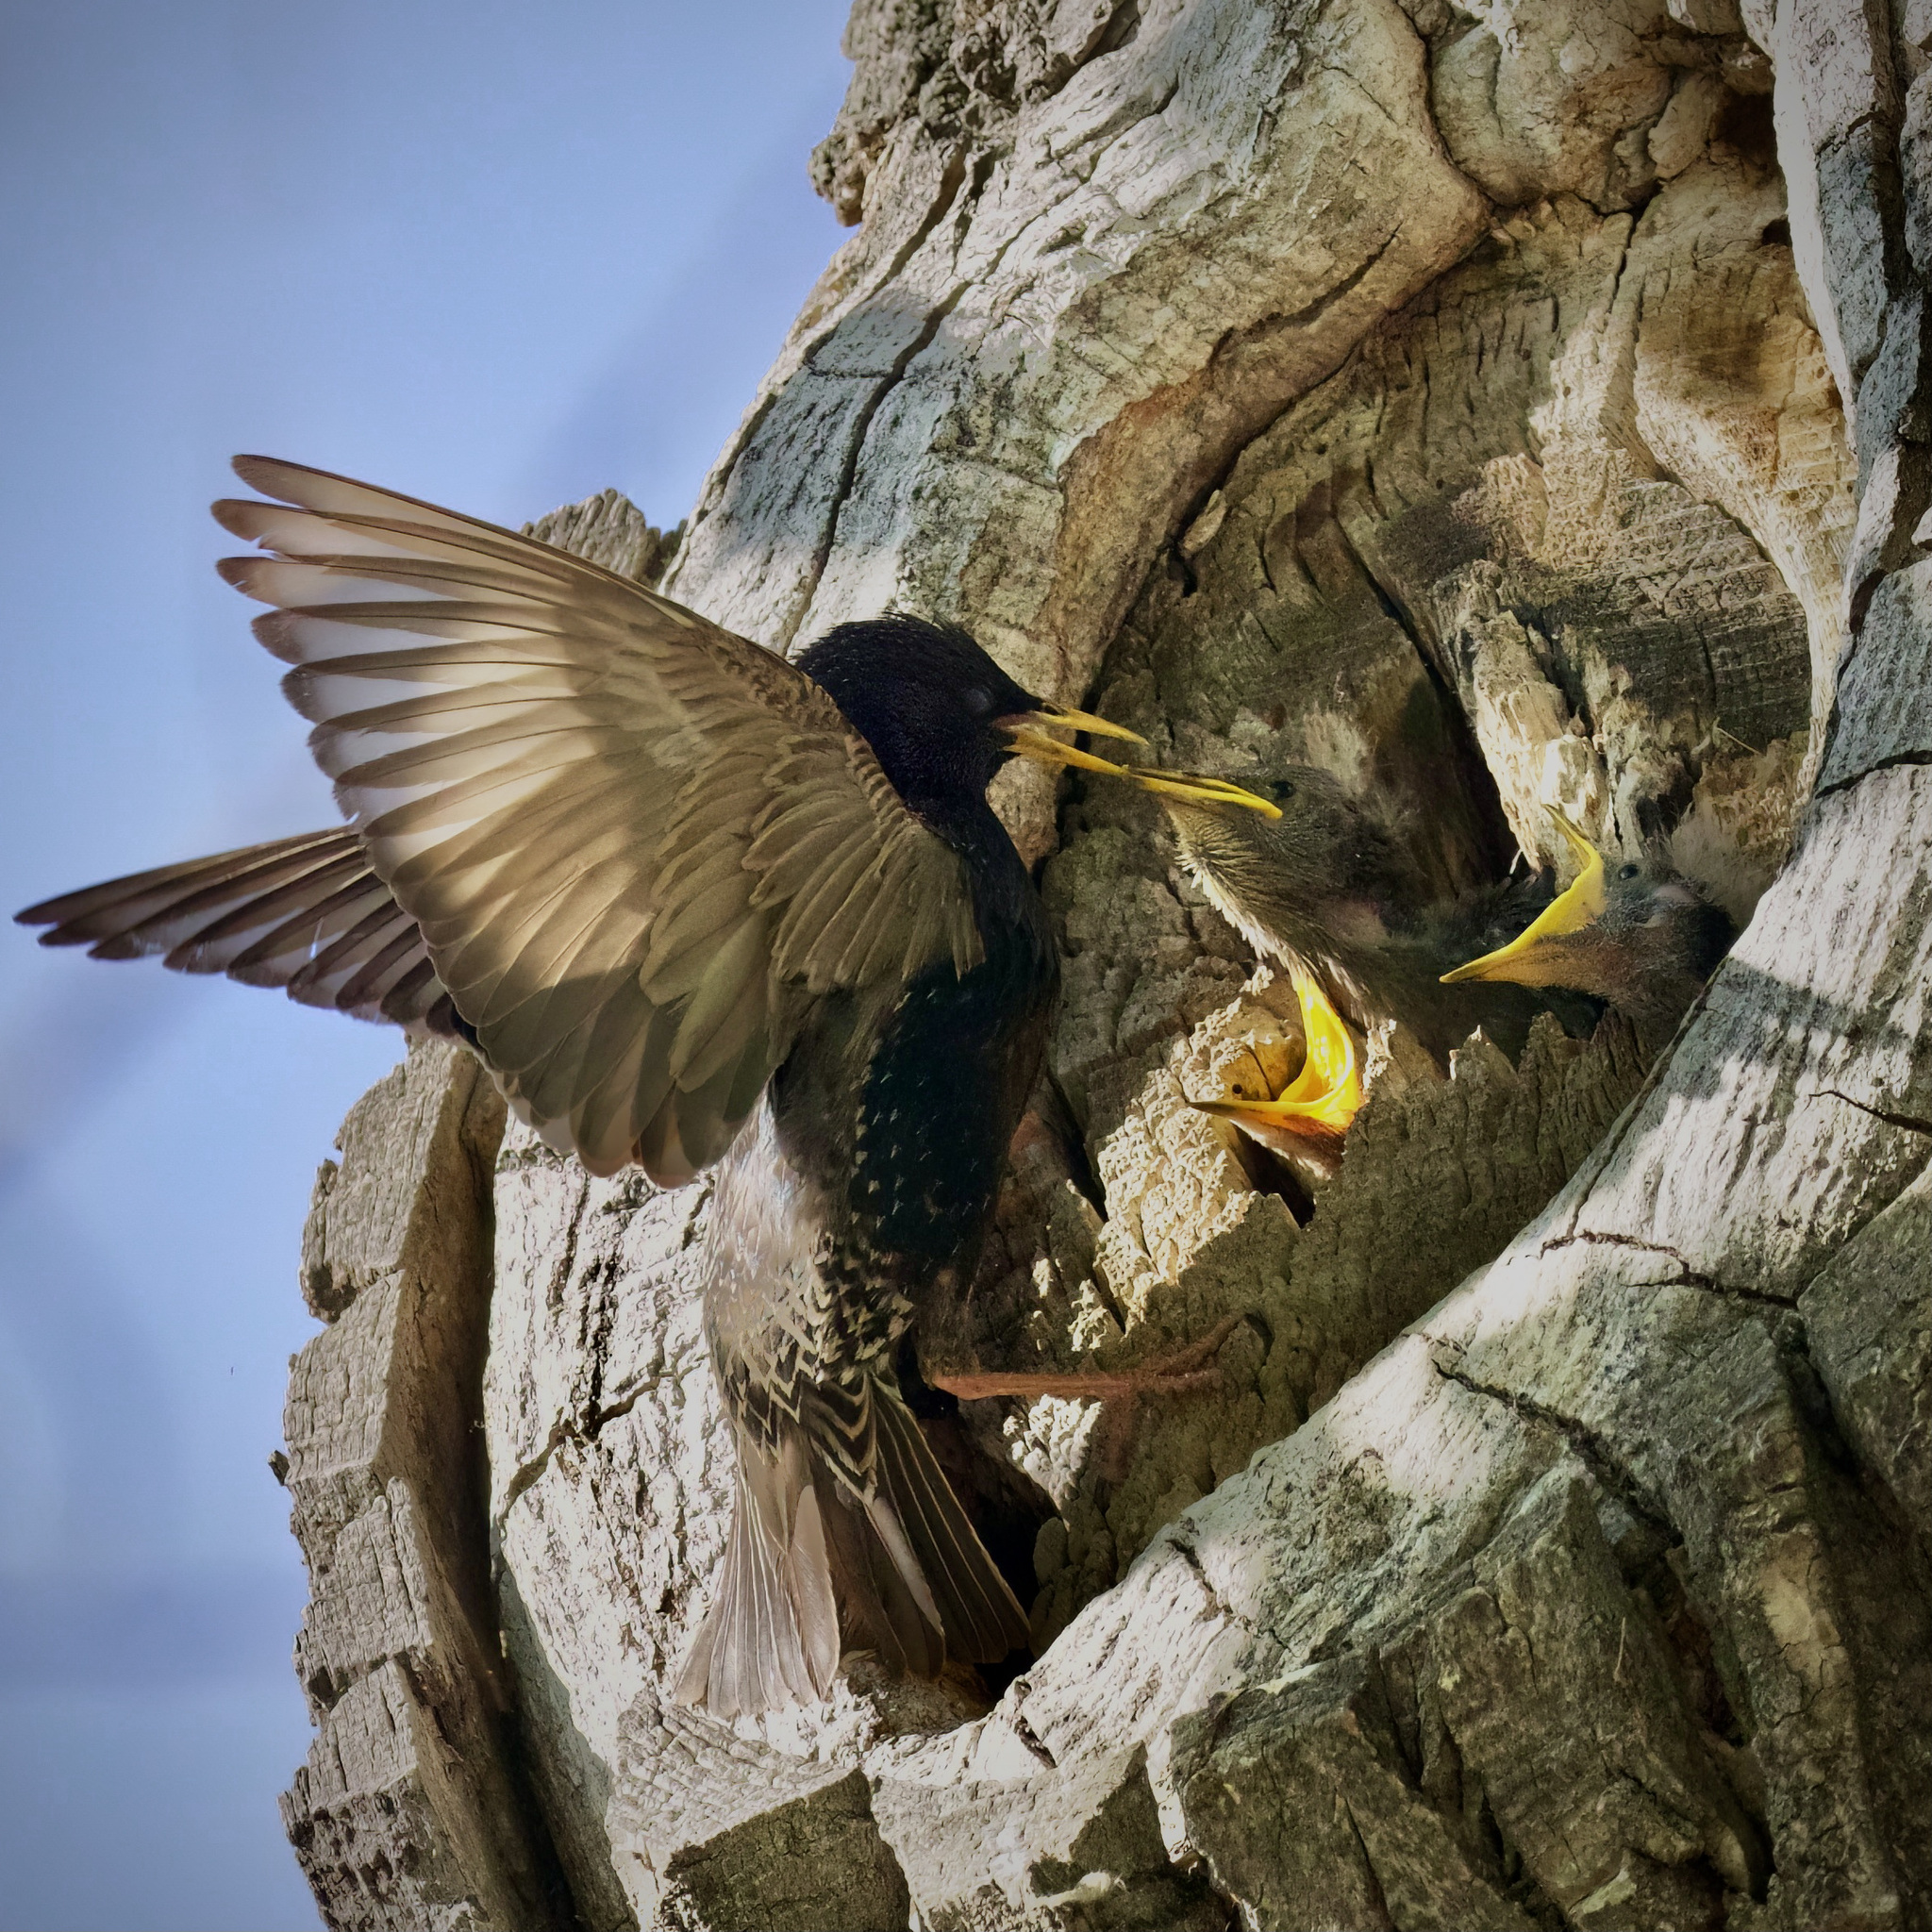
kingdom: Animalia
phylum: Chordata
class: Aves
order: Passeriformes
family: Sturnidae
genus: Sturnus
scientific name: Sturnus vulgaris
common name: Common starling
